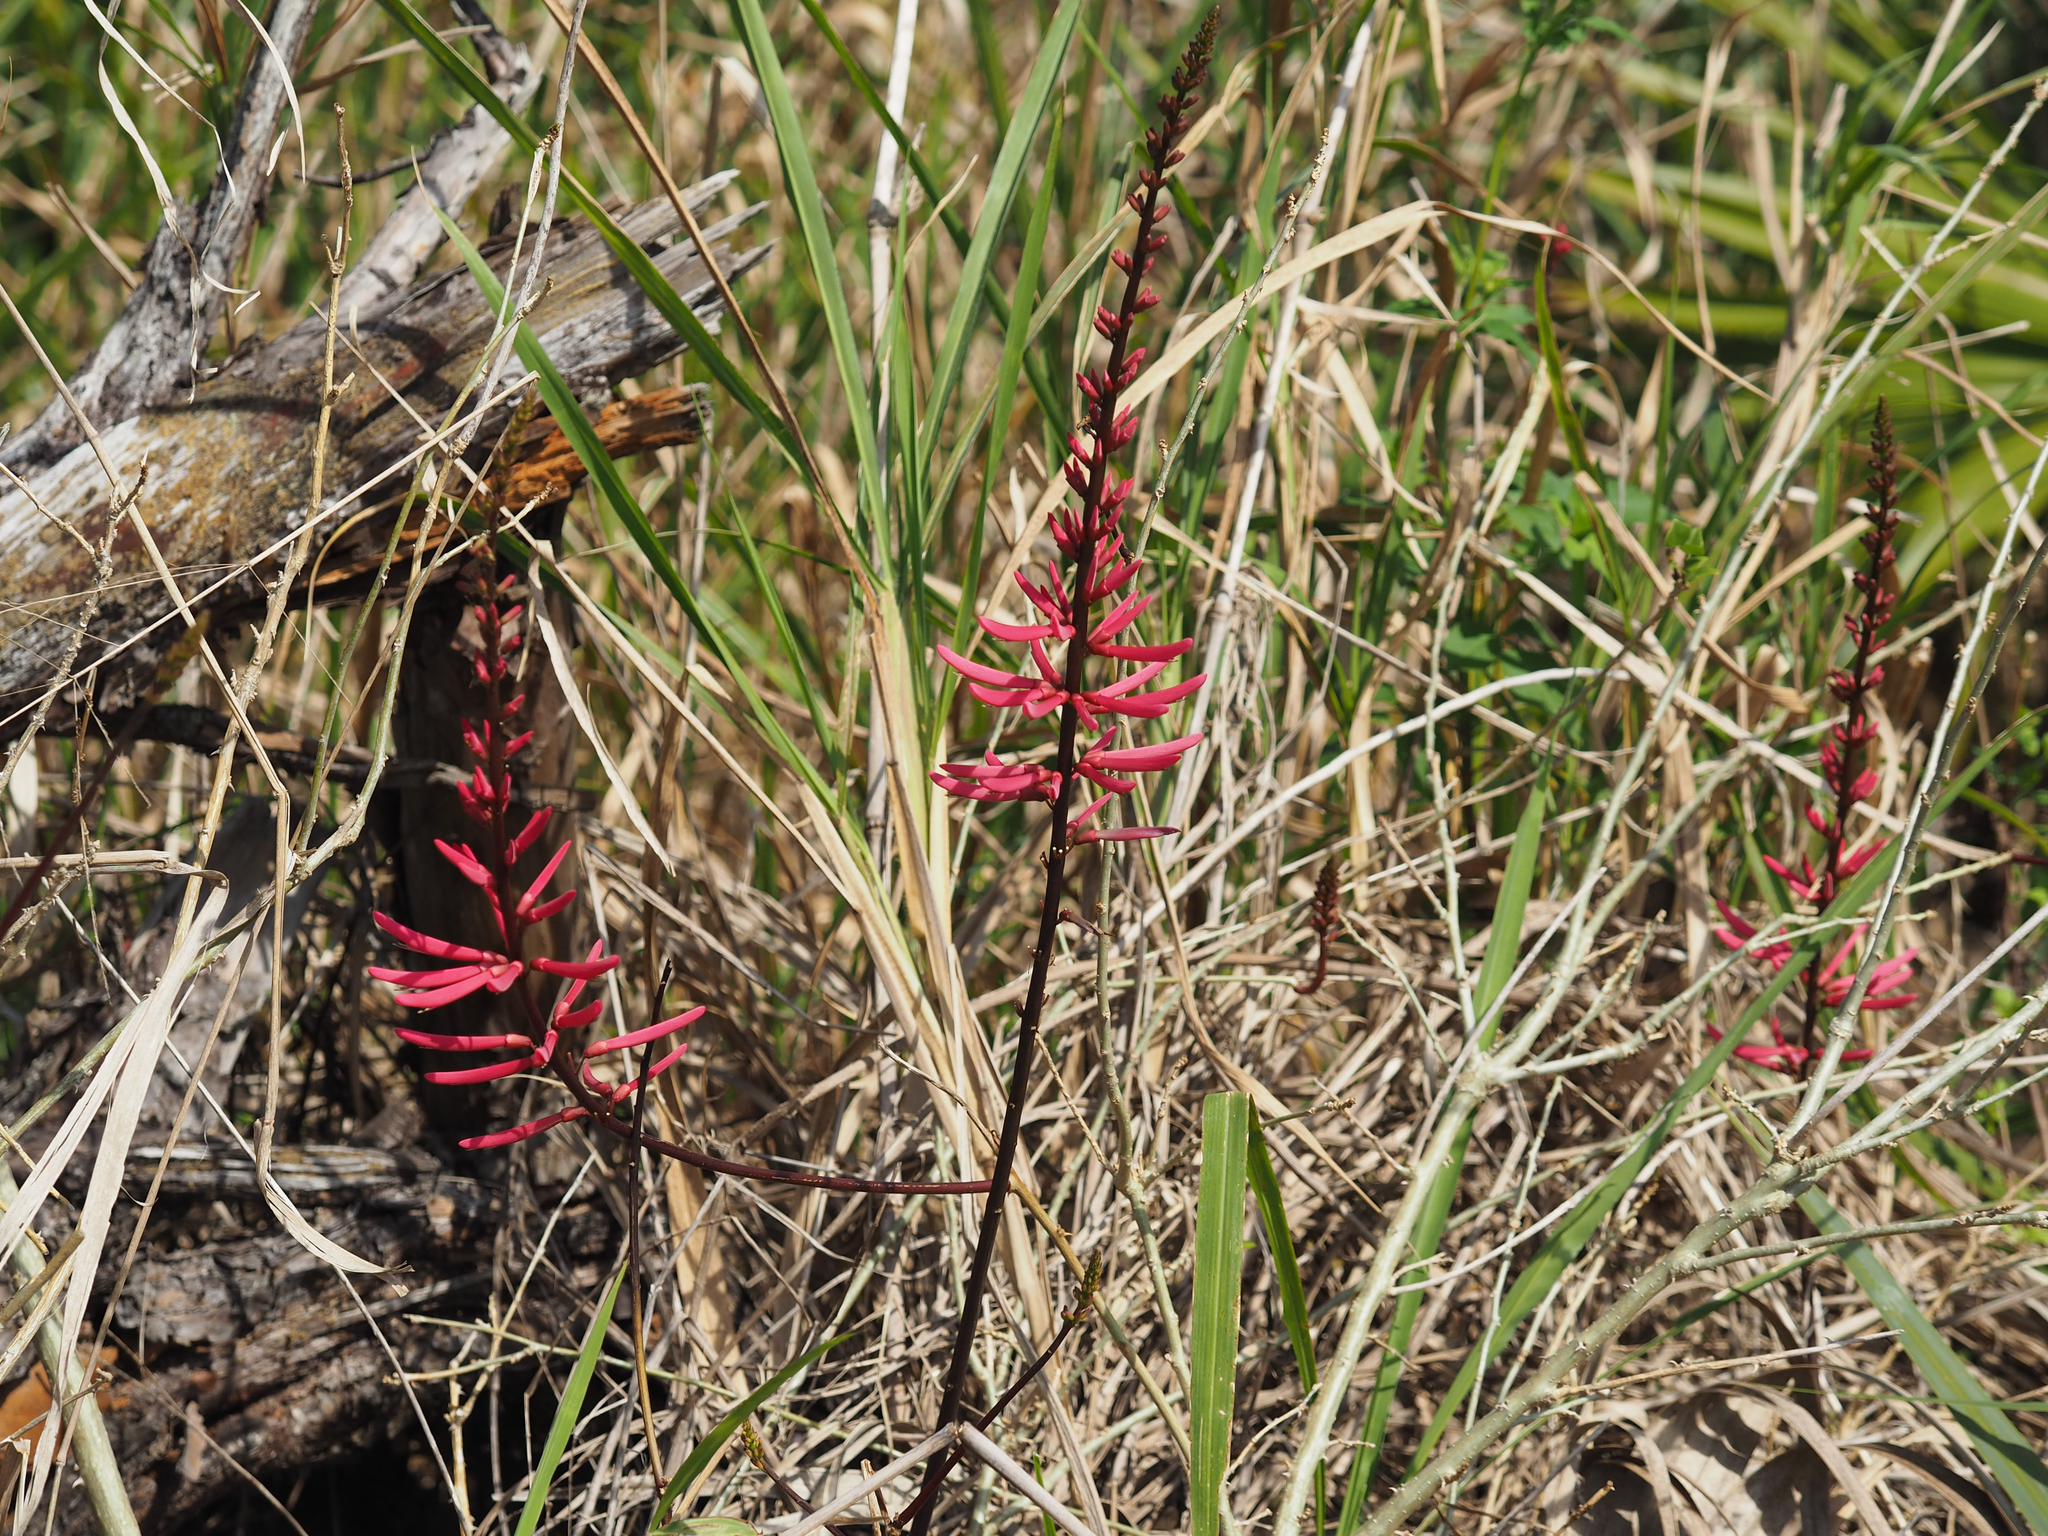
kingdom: Plantae
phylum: Tracheophyta
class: Magnoliopsida
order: Fabales
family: Fabaceae
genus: Erythrina
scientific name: Erythrina herbacea
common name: Coral-bean
